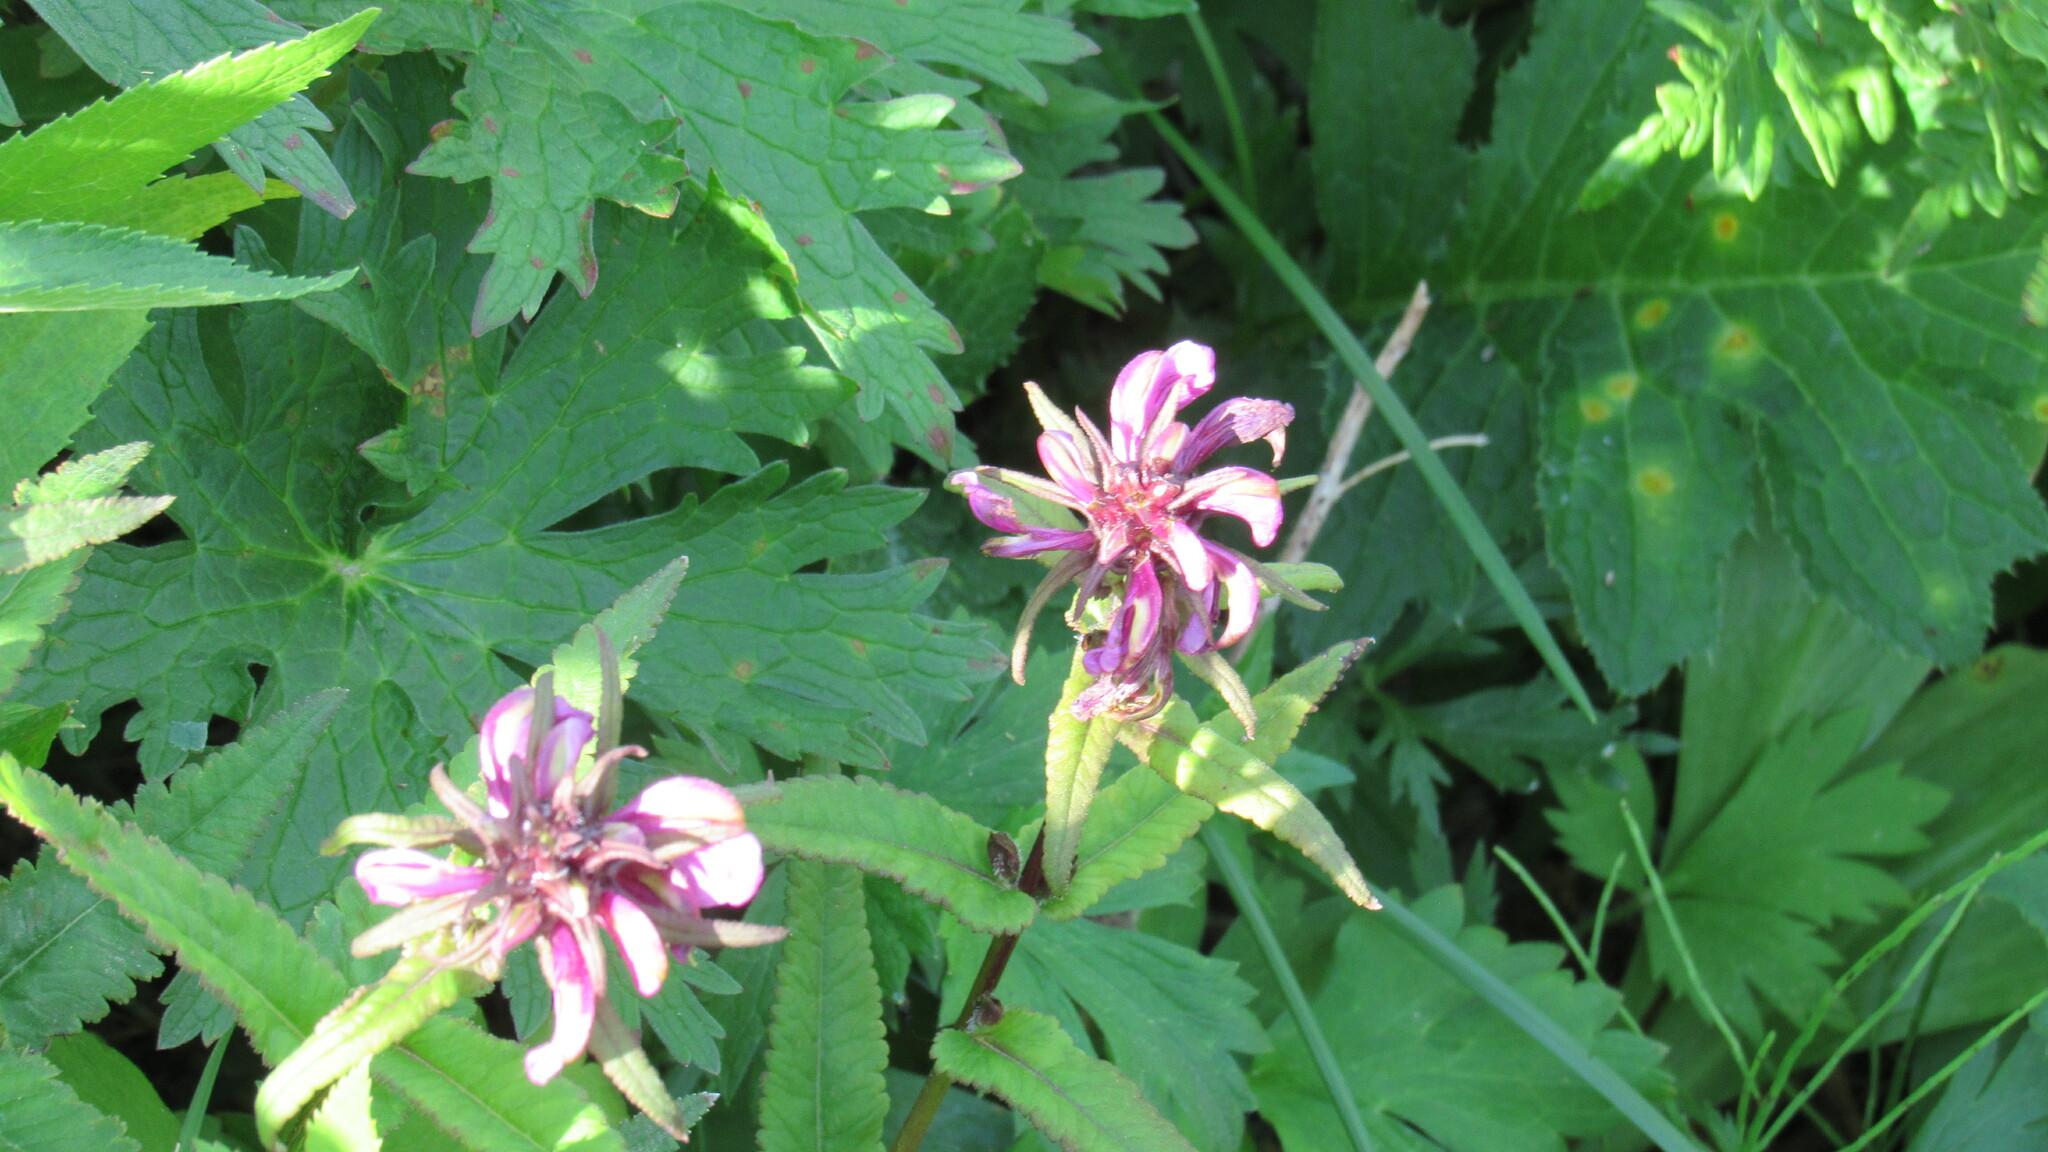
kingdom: Plantae
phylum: Tracheophyta
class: Magnoliopsida
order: Lamiales
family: Orobanchaceae
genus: Pedicularis
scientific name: Pedicularis resupinata
